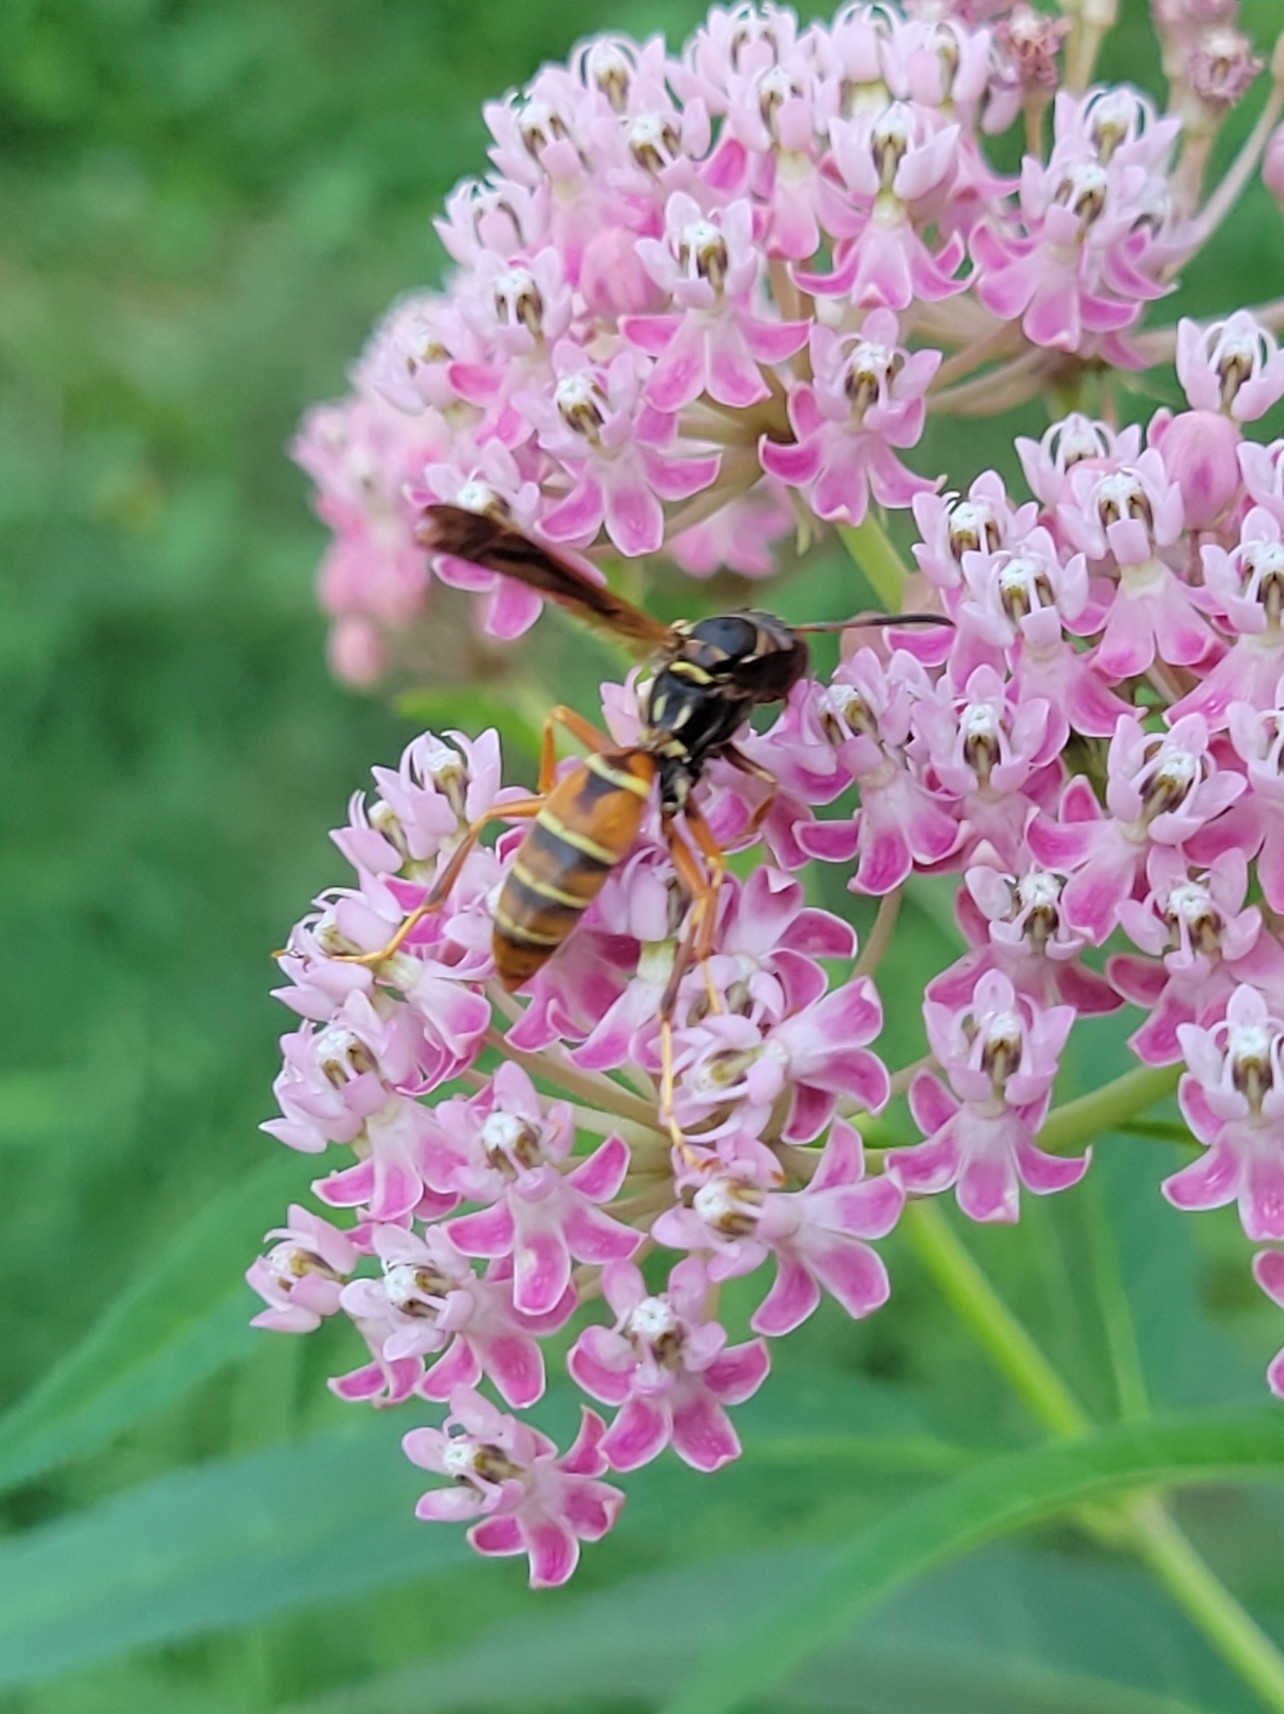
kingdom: Animalia
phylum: Arthropoda
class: Insecta
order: Hymenoptera
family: Eumenidae
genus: Polistes
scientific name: Polistes fuscatus
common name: Dark paper wasp
